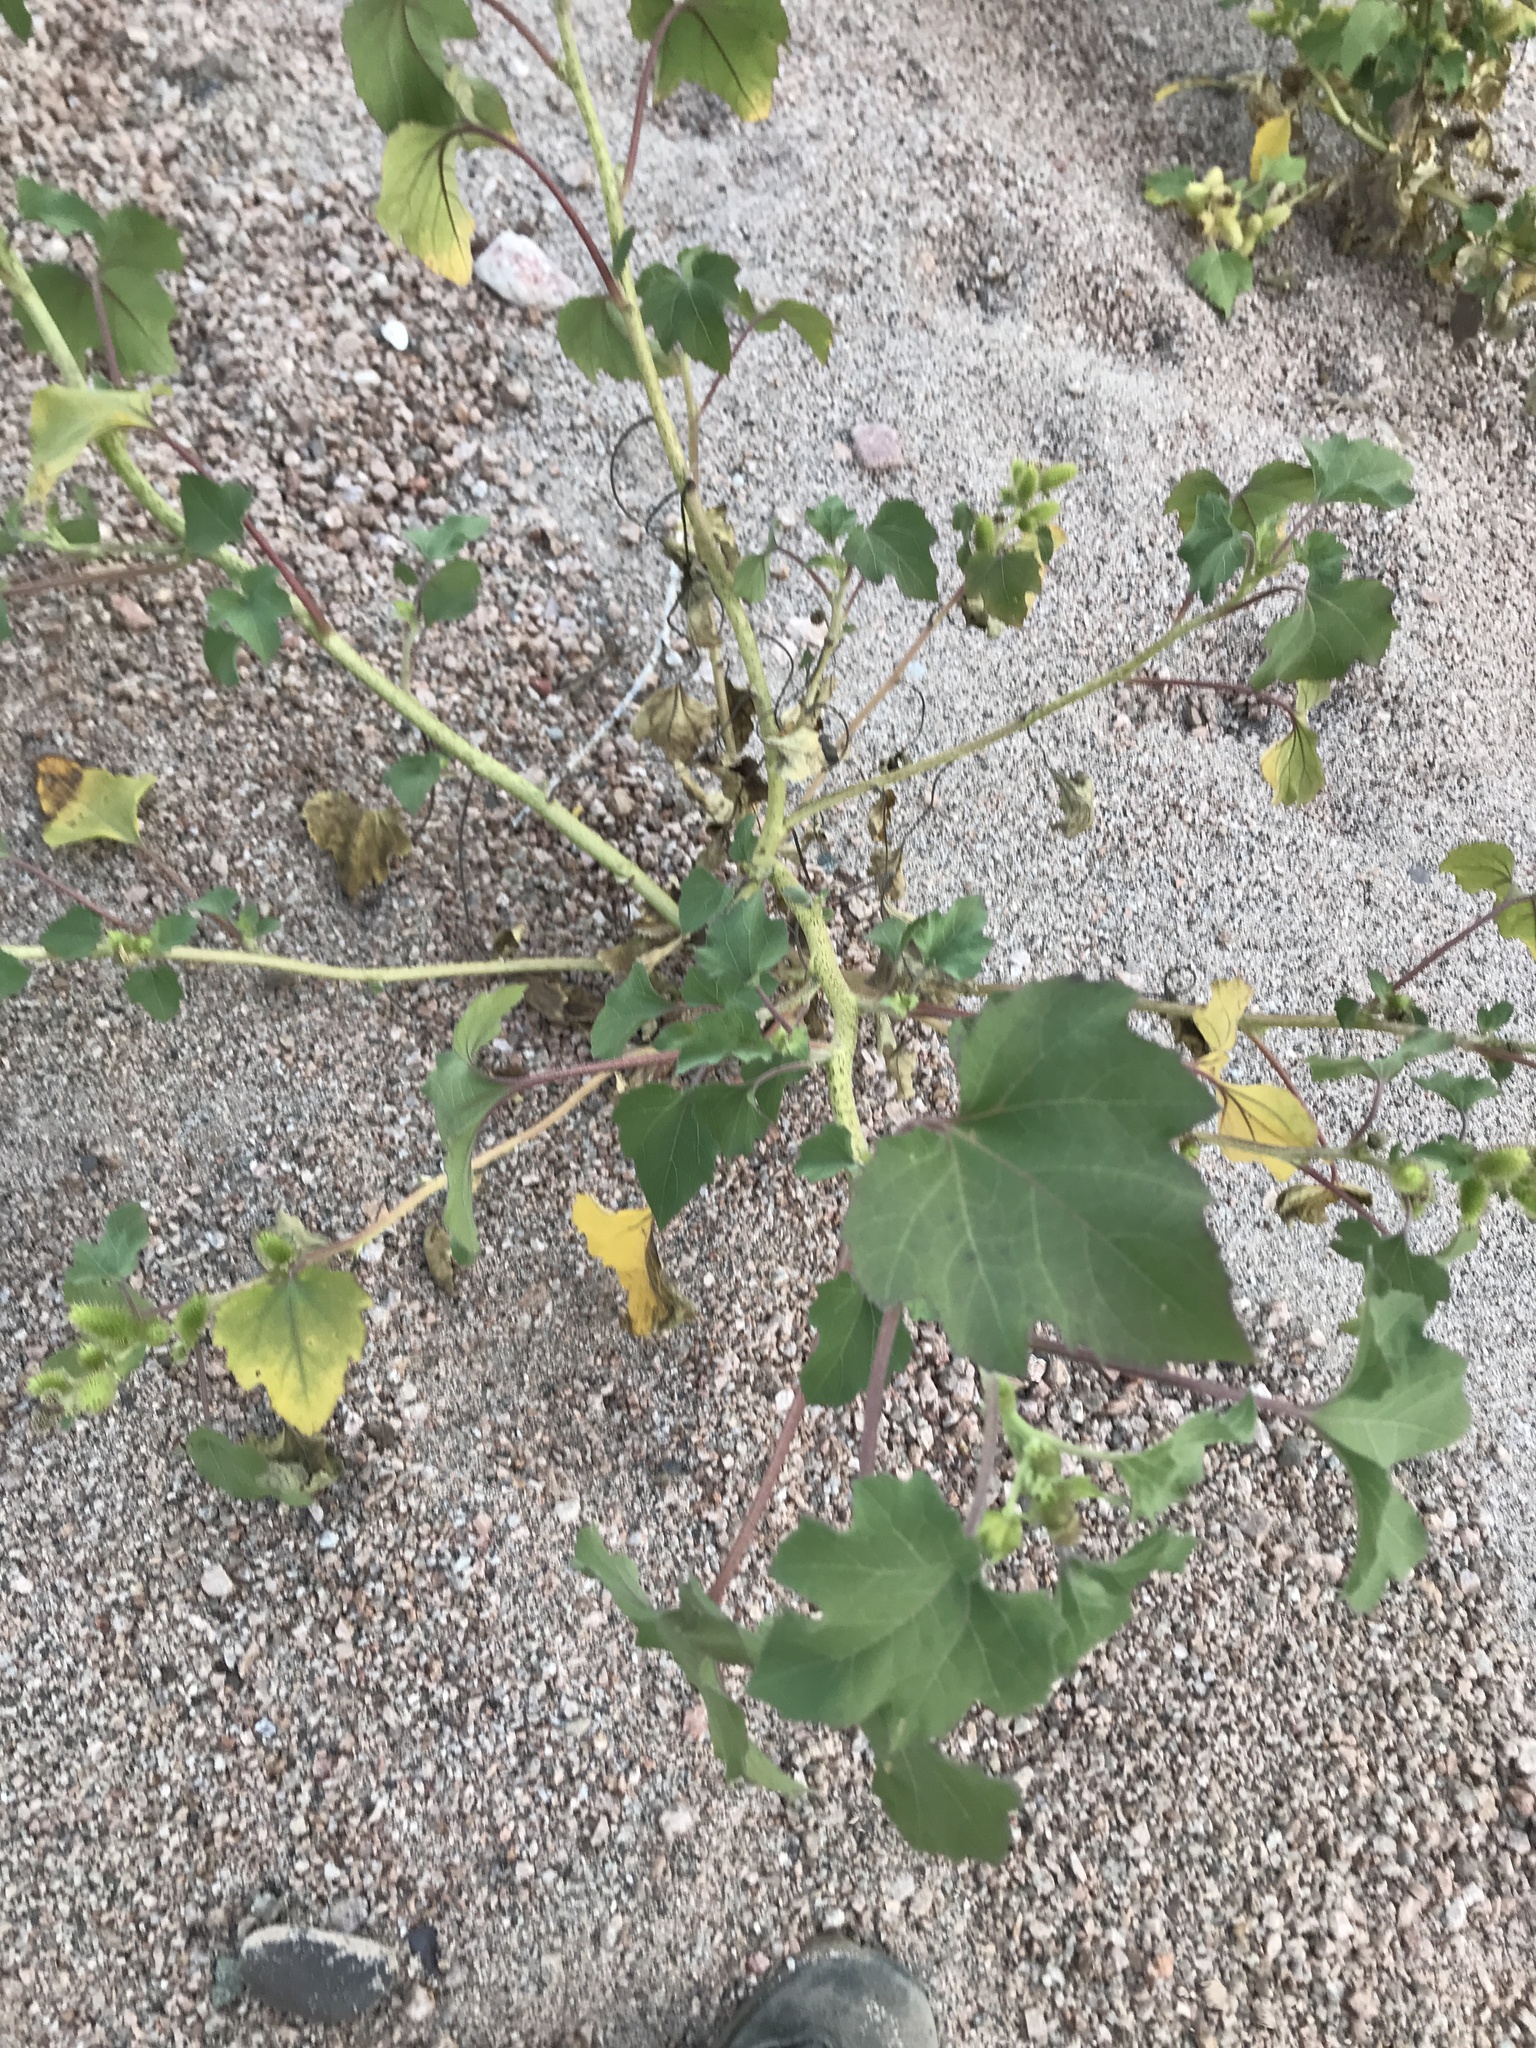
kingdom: Plantae
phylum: Tracheophyta
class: Magnoliopsida
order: Asterales
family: Asteraceae
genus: Xanthium
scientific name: Xanthium strumarium
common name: Rough cocklebur
